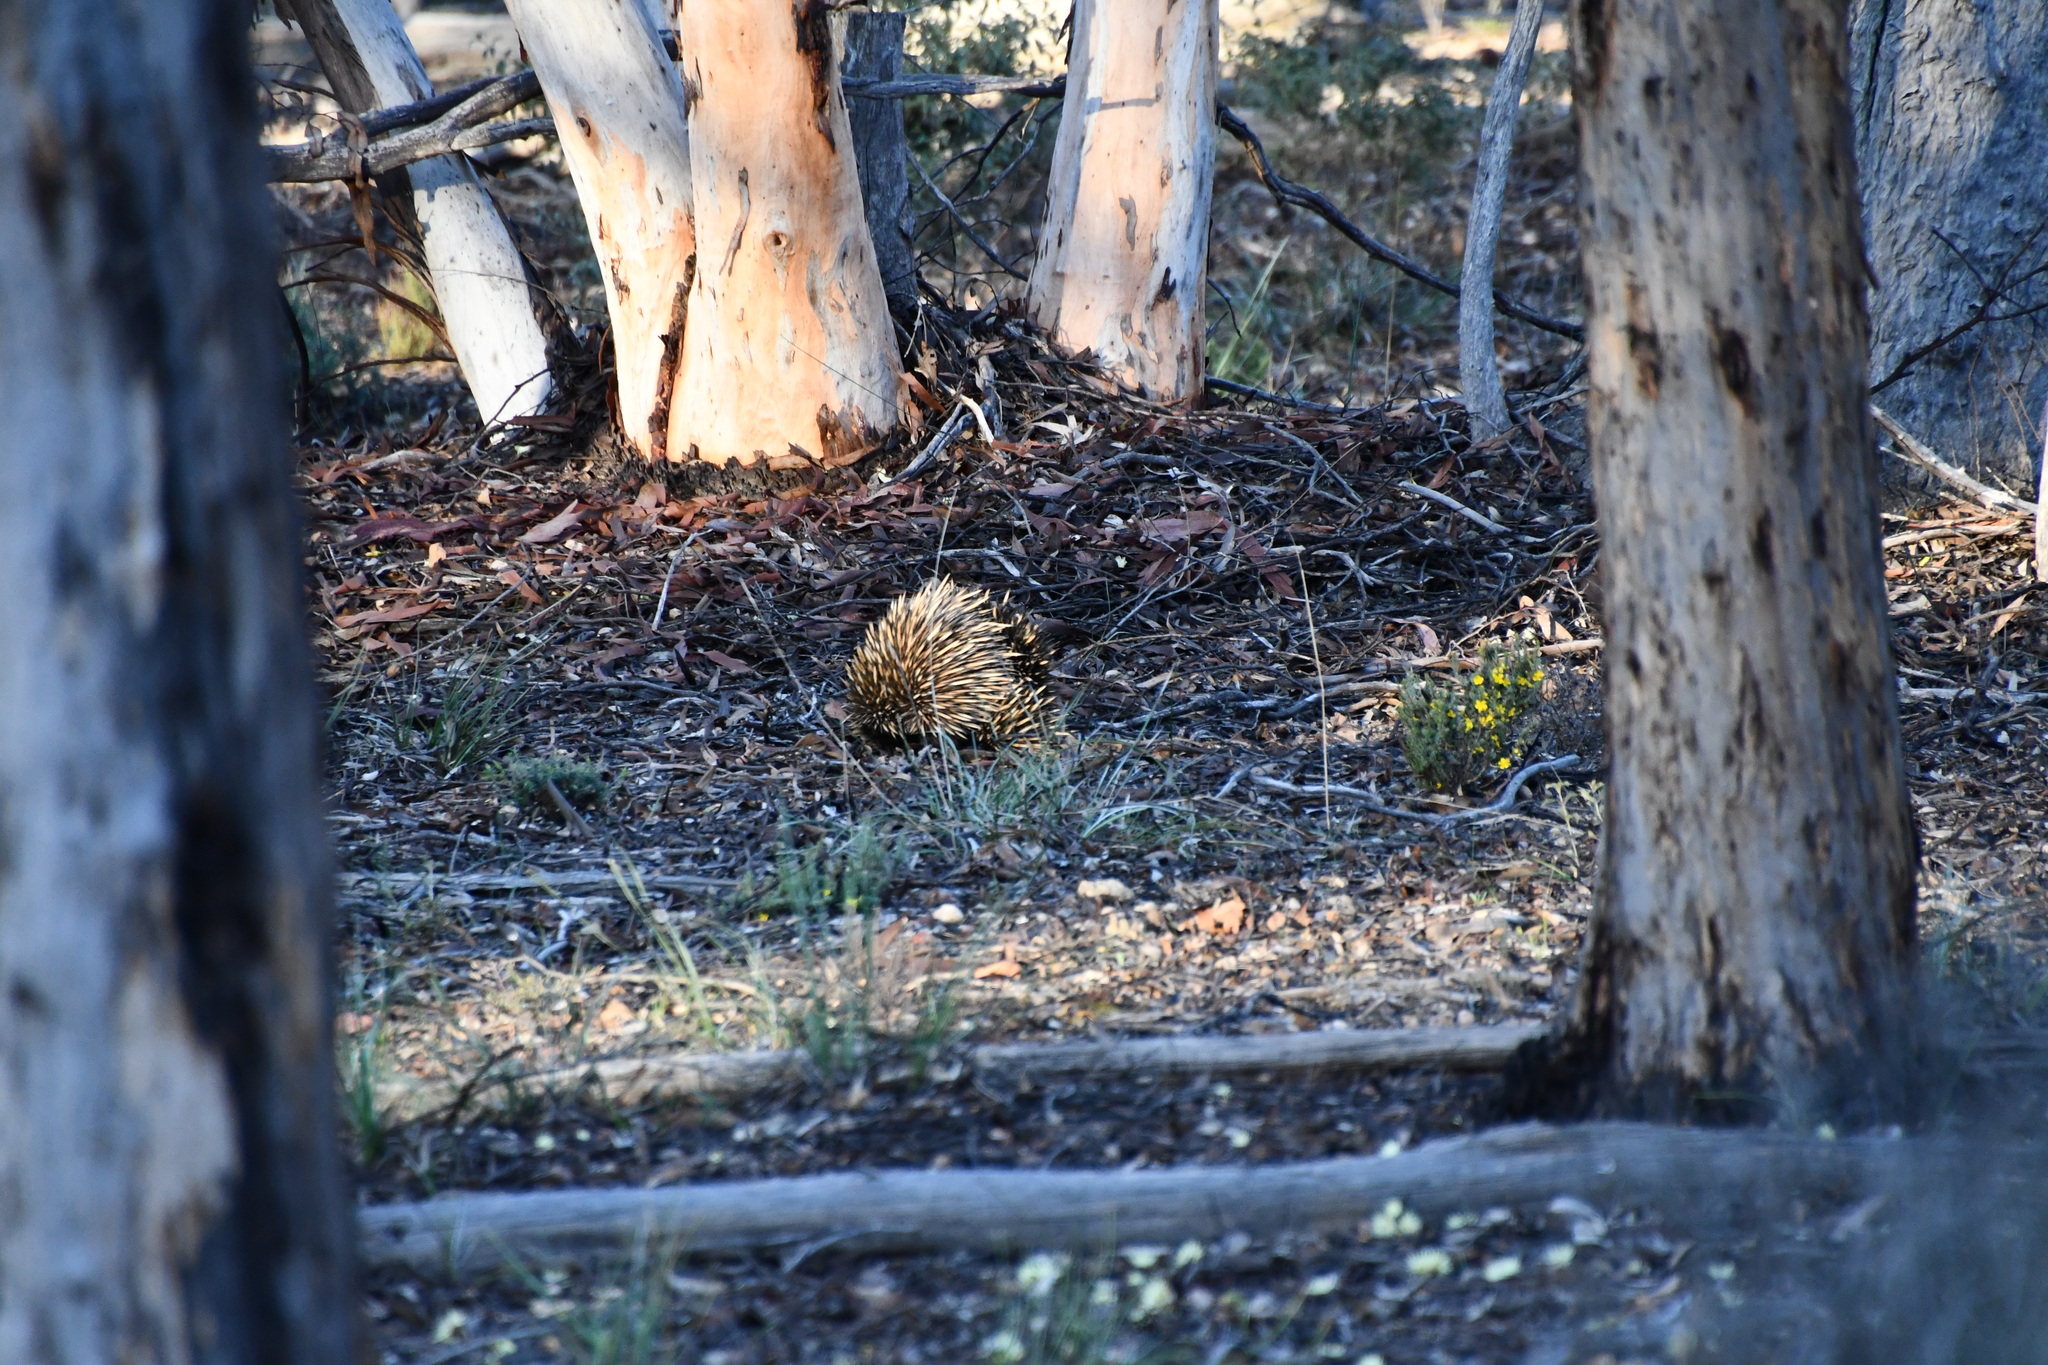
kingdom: Animalia
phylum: Chordata
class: Mammalia
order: Monotremata
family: Tachyglossidae
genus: Tachyglossus
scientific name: Tachyglossus aculeatus
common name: Short-beaked echidna
